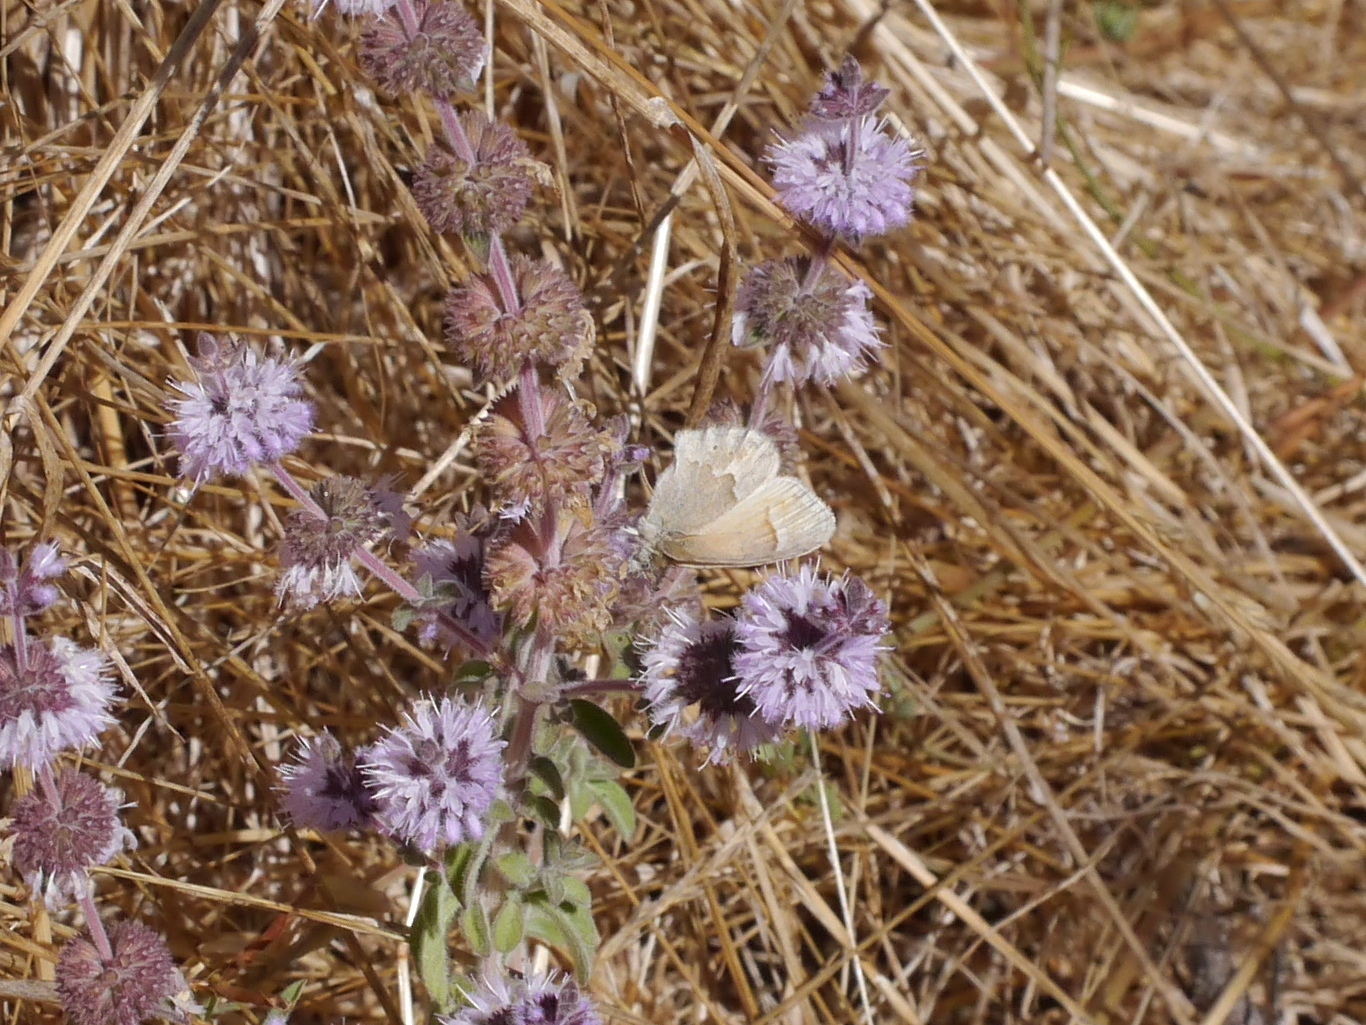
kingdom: Animalia
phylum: Arthropoda
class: Insecta
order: Lepidoptera
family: Nymphalidae
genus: Coenonympha
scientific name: Coenonympha california
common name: Common ringlet
